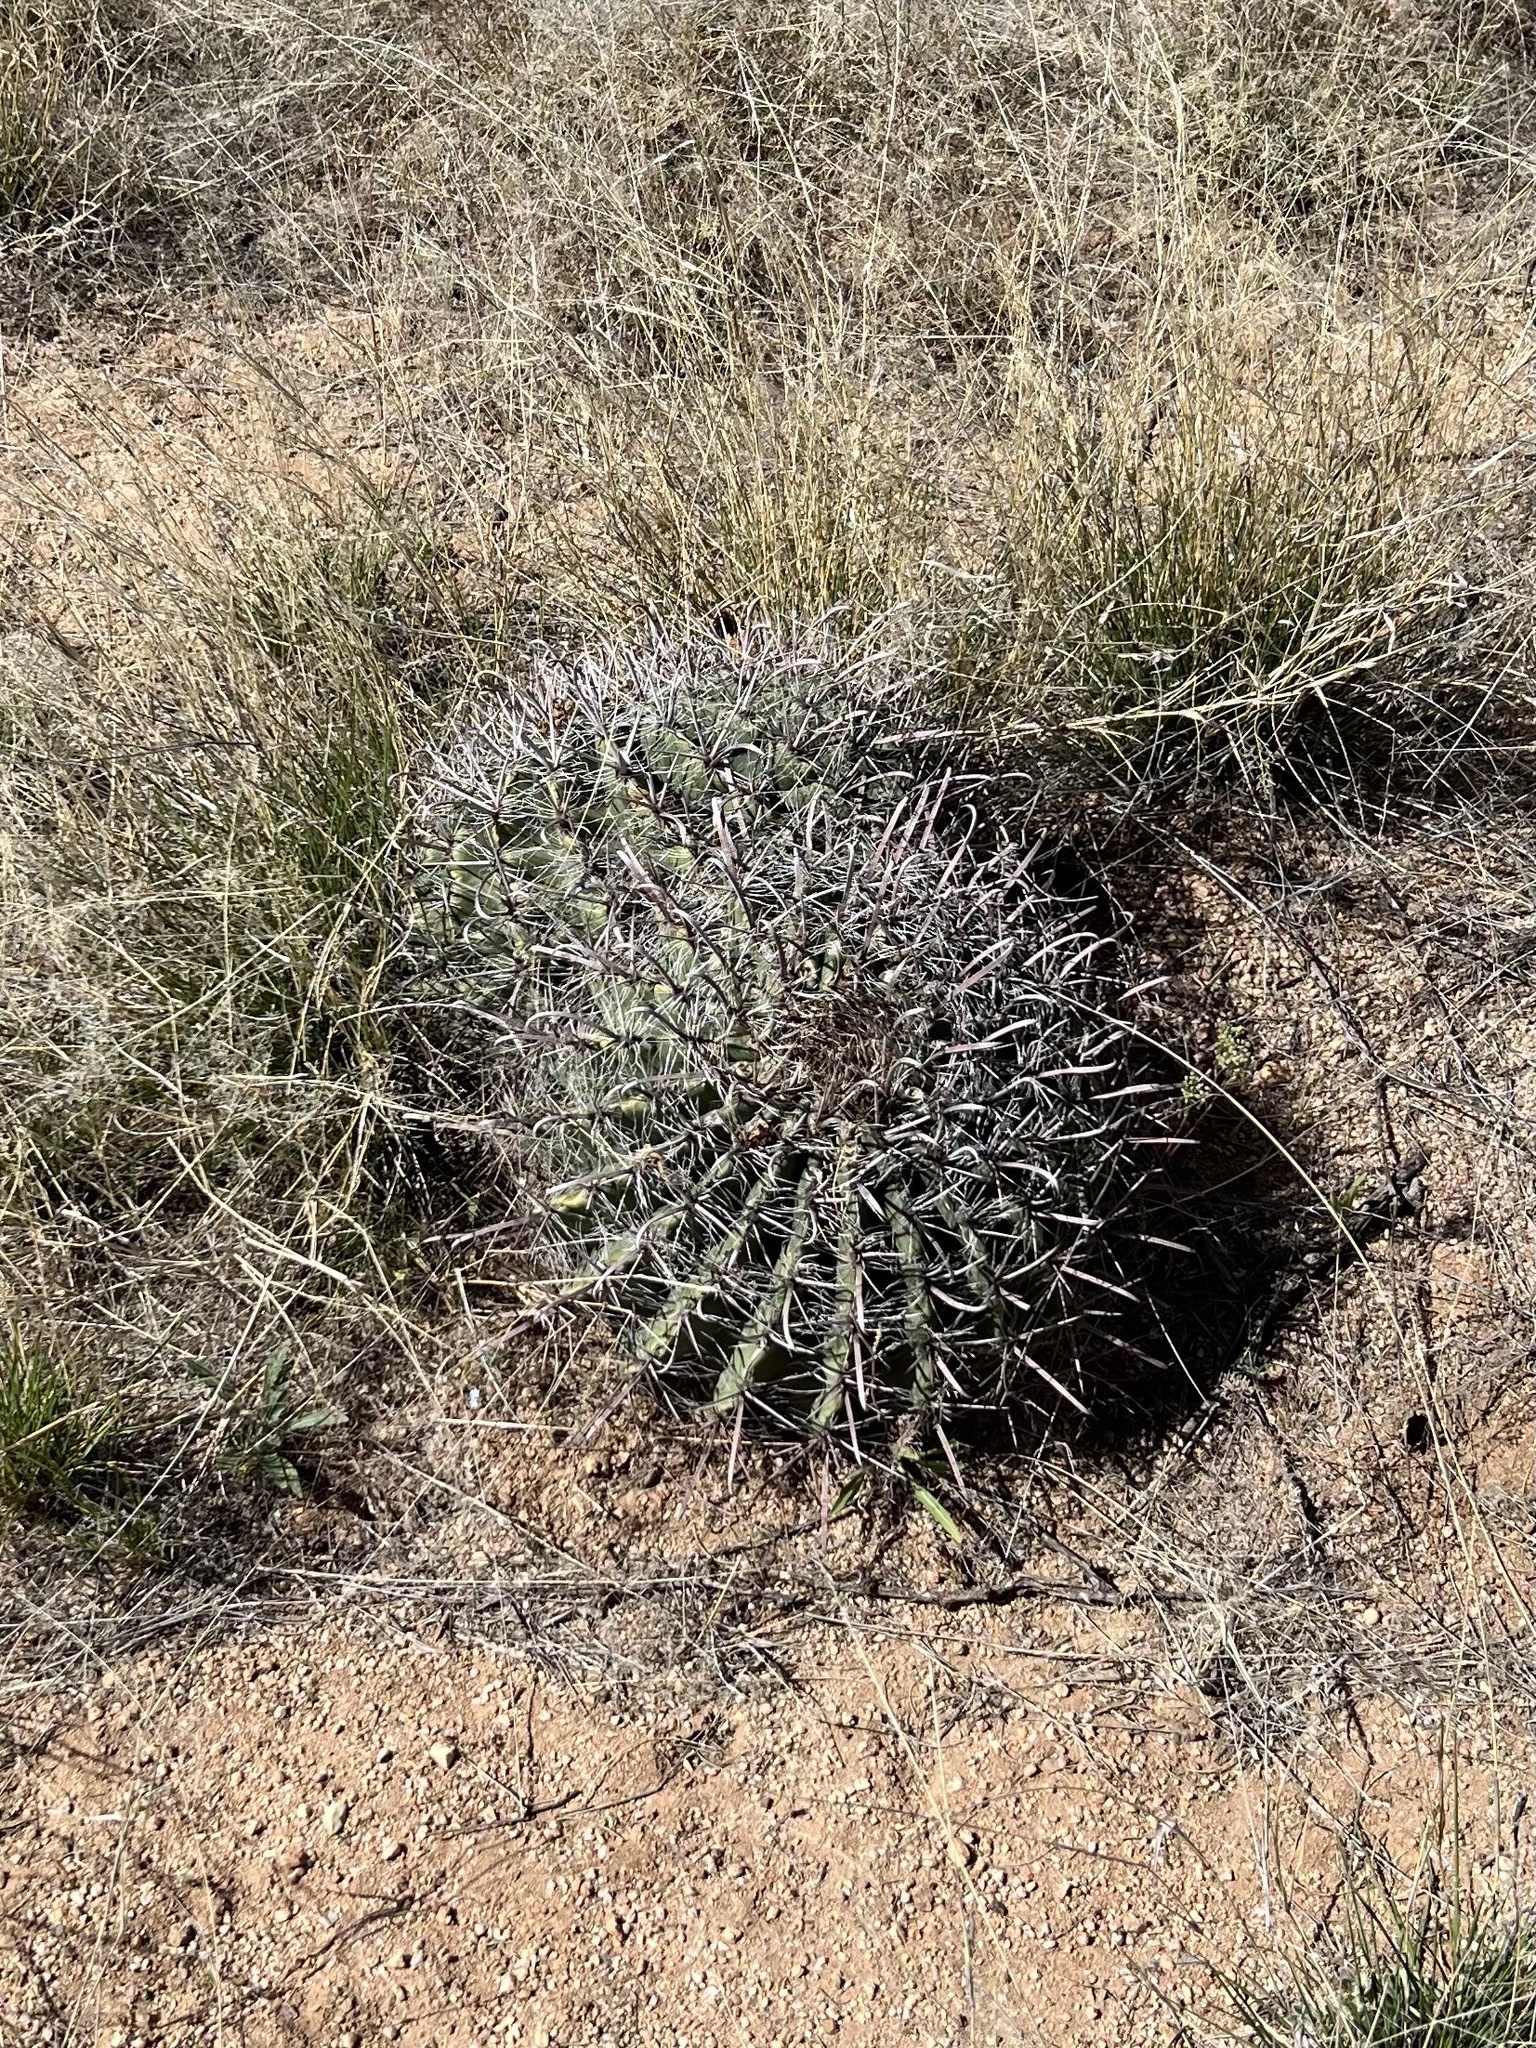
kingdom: Plantae
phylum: Tracheophyta
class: Magnoliopsida
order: Caryophyllales
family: Cactaceae
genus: Ferocactus
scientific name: Ferocactus wislizeni
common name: Candy barrel cactus
